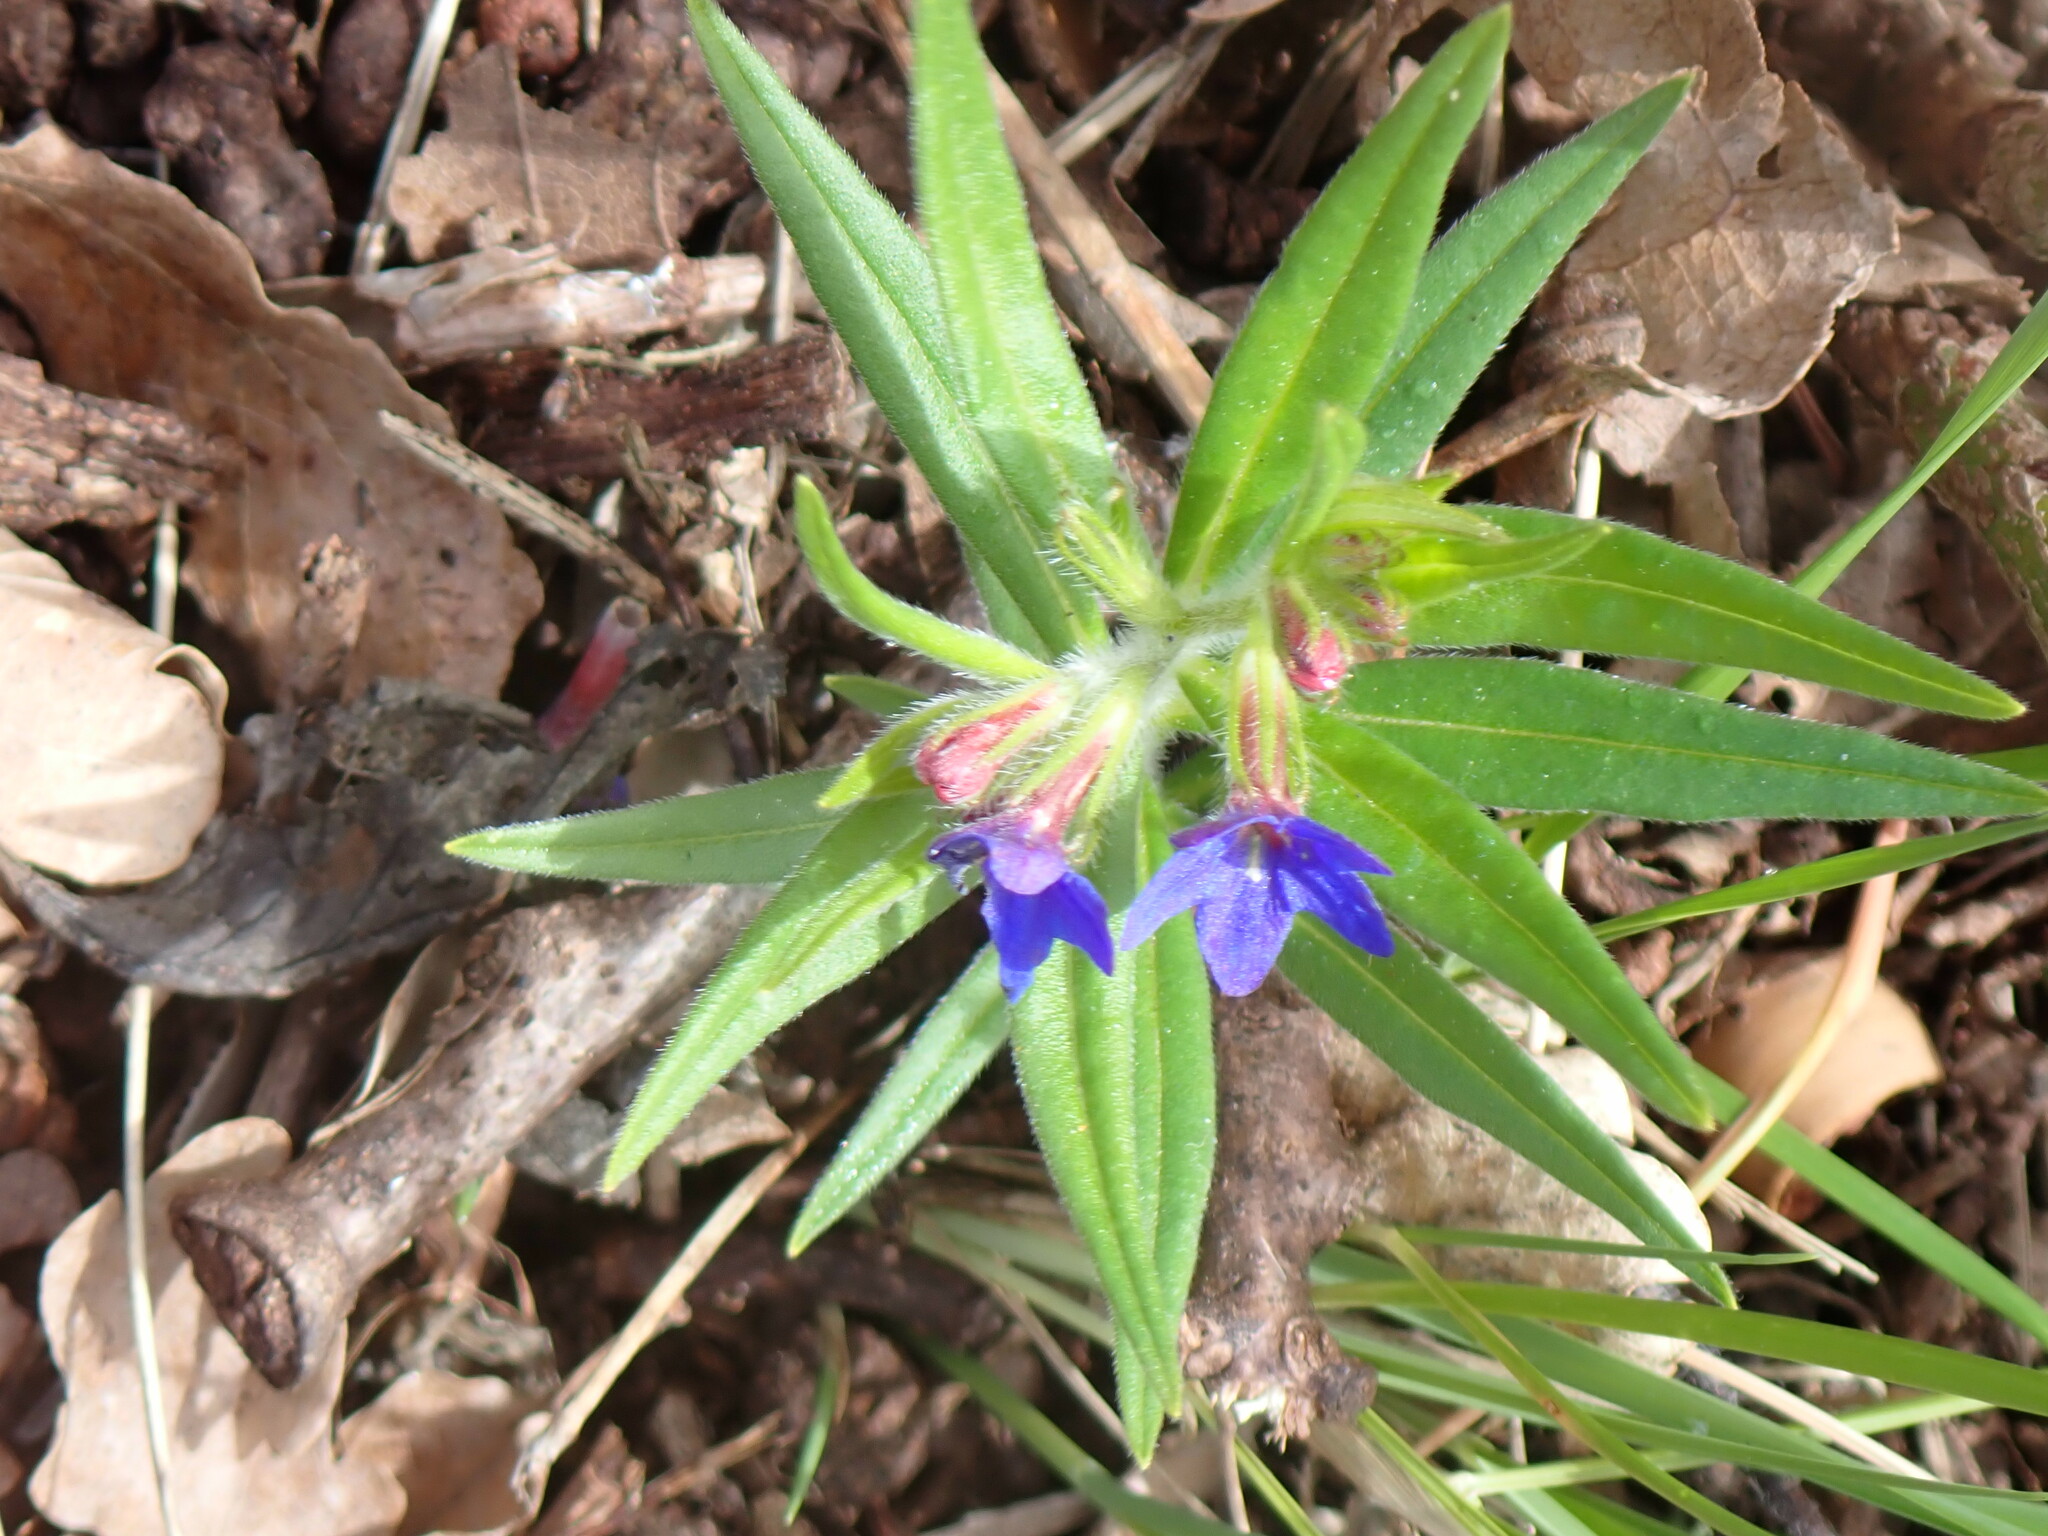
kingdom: Plantae
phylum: Tracheophyta
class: Magnoliopsida
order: Boraginales
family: Boraginaceae
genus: Aegonychon
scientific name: Aegonychon purpurocaeruleum
